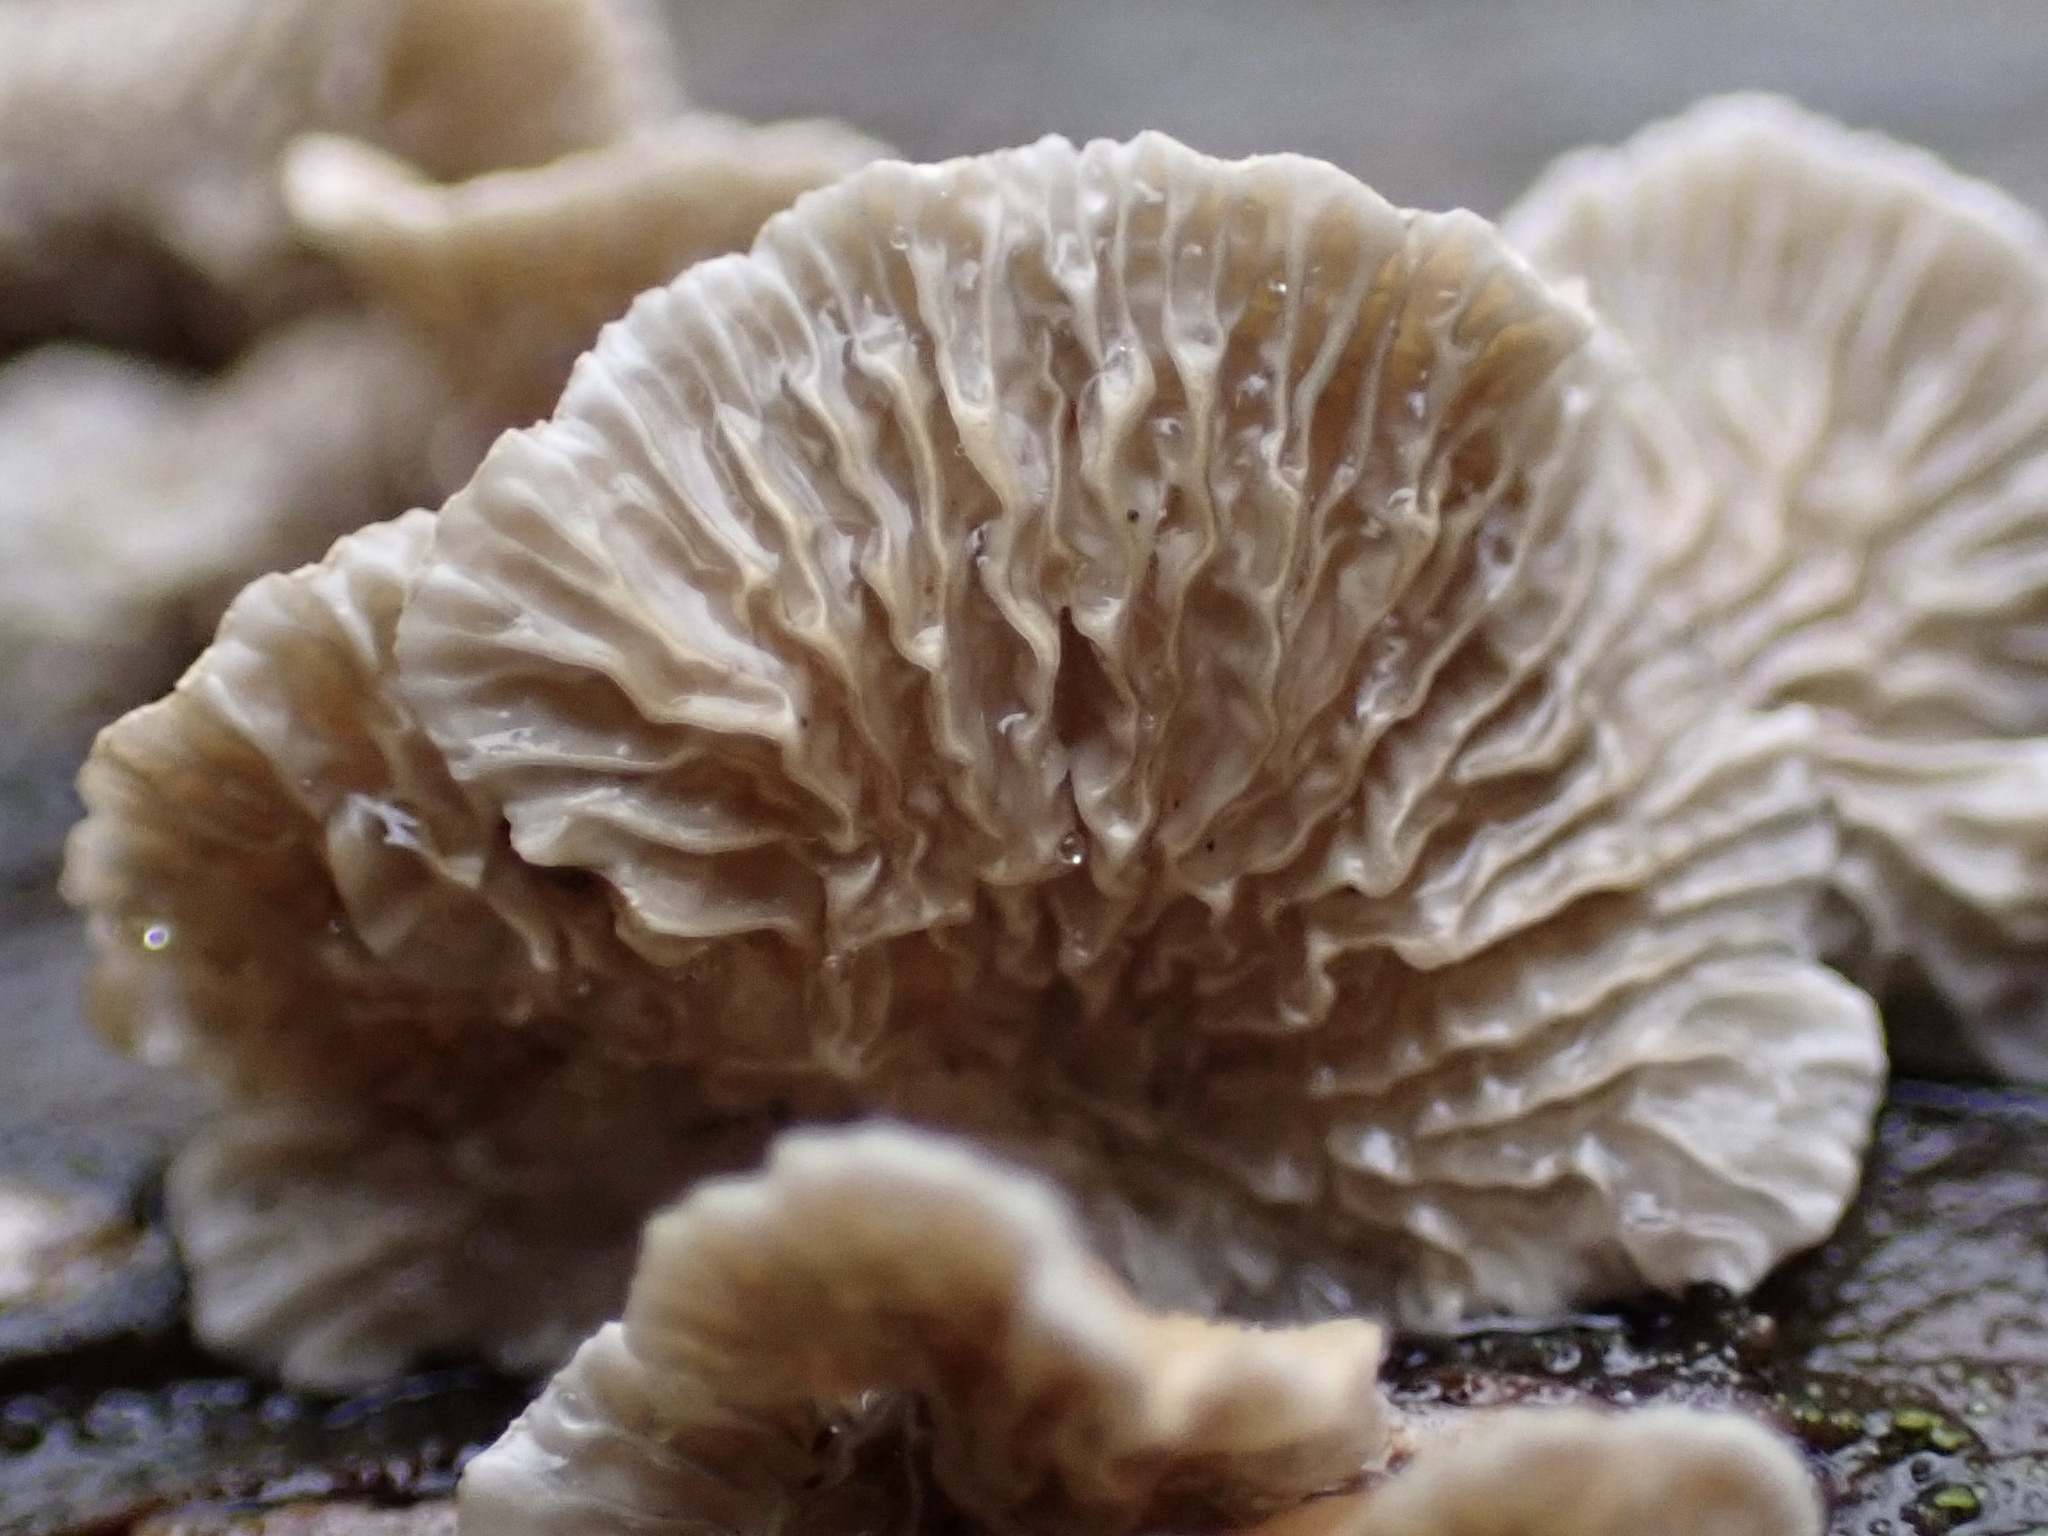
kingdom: Fungi
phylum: Basidiomycota
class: Agaricomycetes
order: Amylocorticiales
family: Amylocorticiaceae
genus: Plicaturopsis
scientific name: Plicaturopsis crispa
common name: Crimped gill
